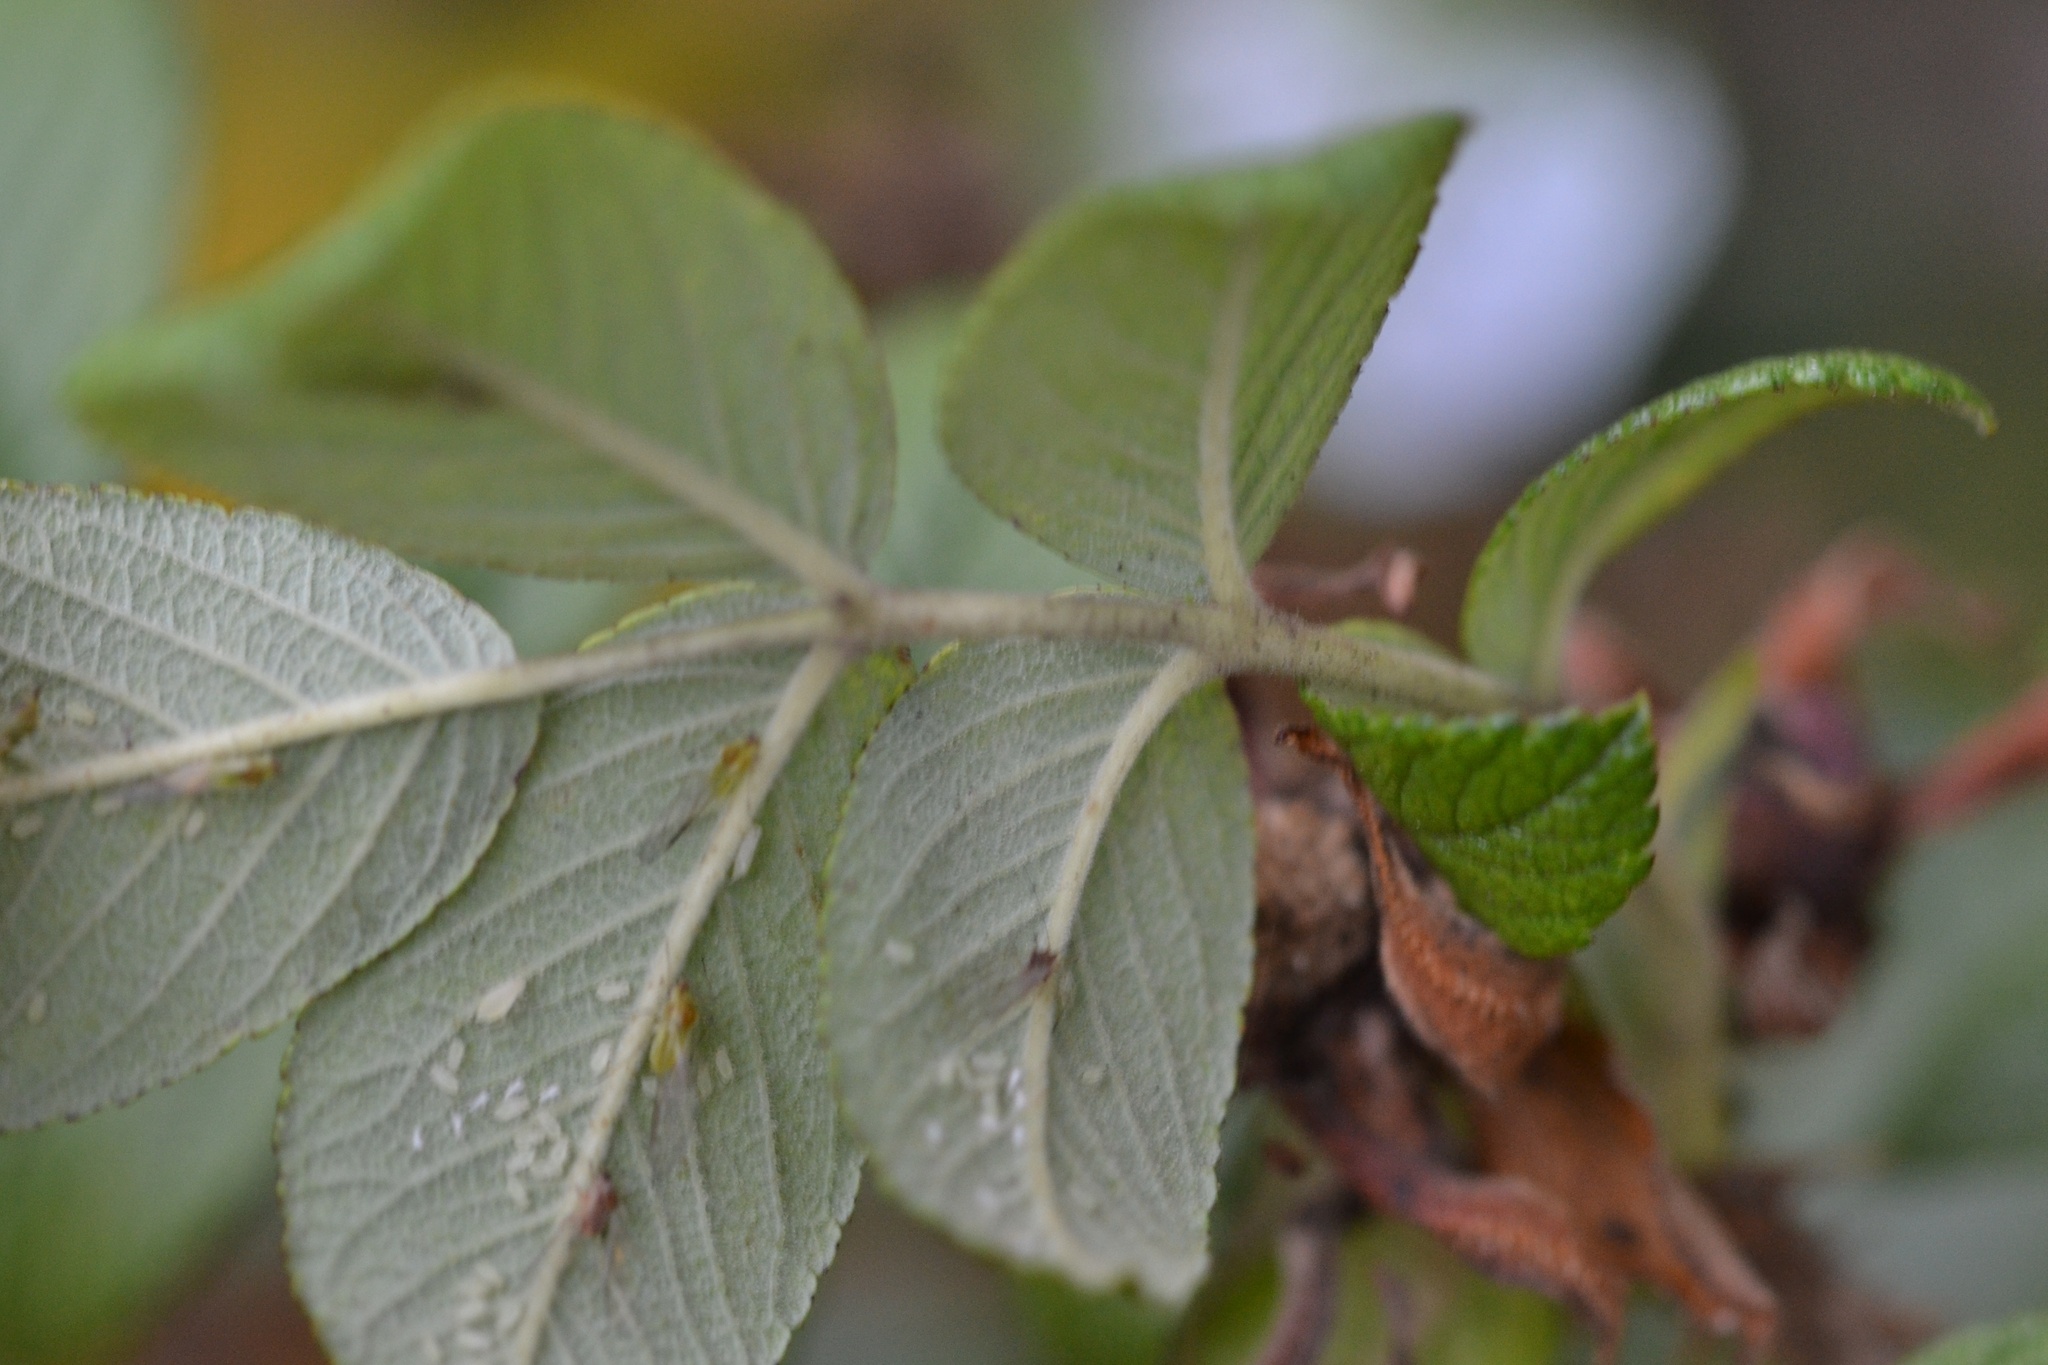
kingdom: Plantae
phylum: Tracheophyta
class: Magnoliopsida
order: Rosales
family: Rosaceae
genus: Rosa
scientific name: Rosa rugosa
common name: Japanese rose
